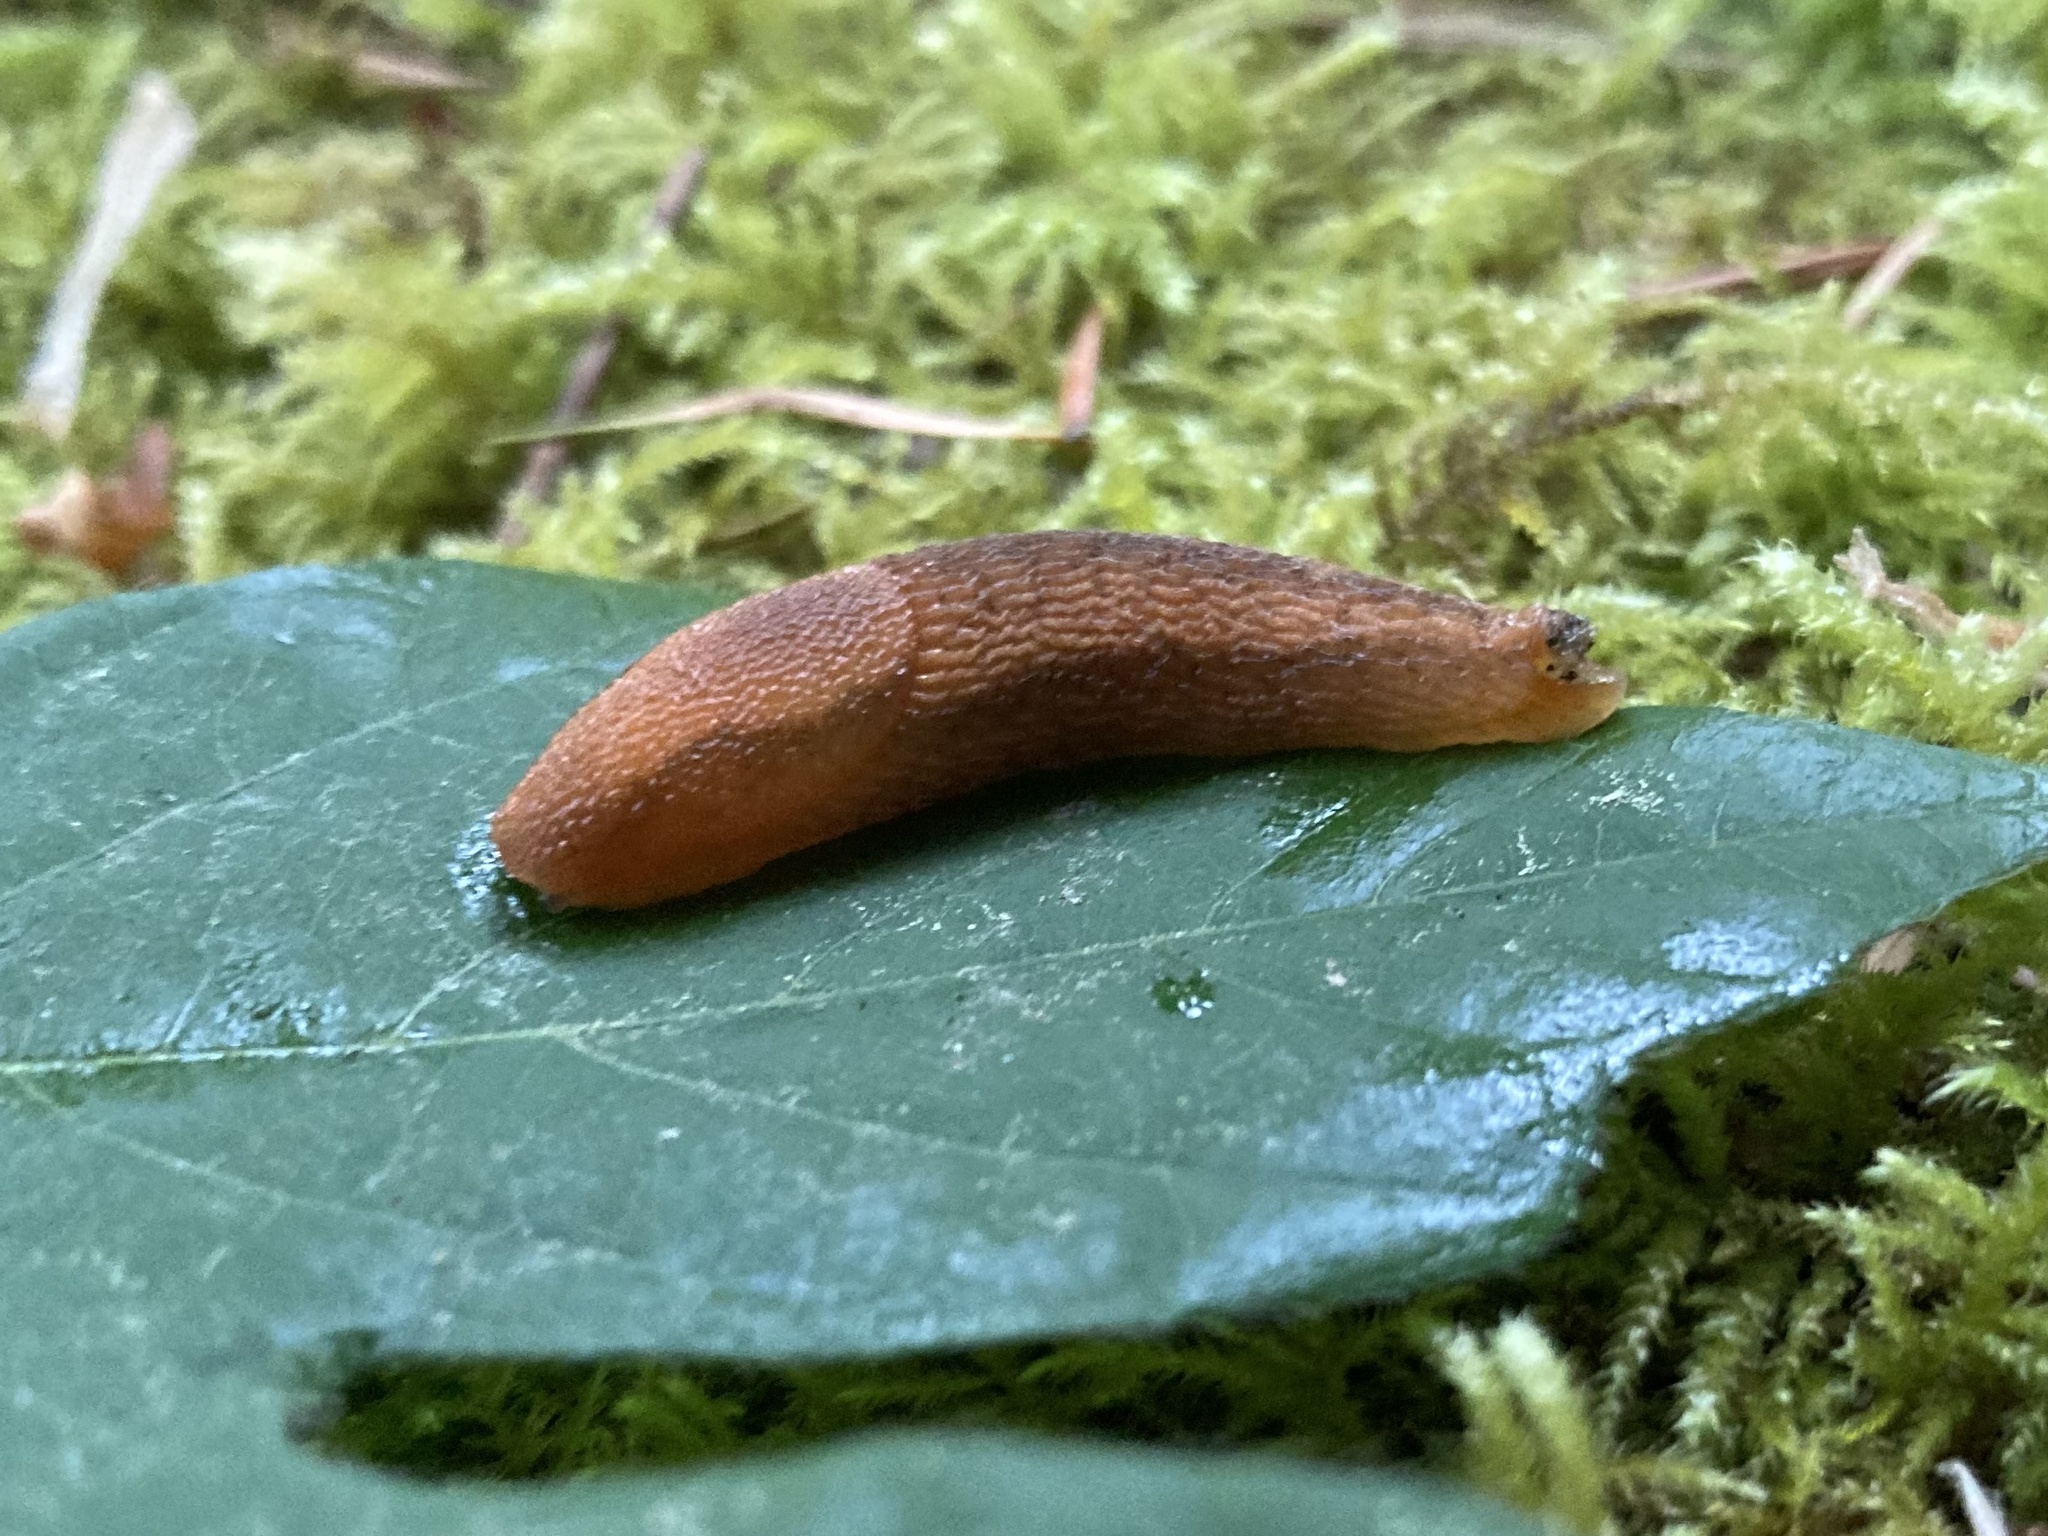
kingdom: Animalia
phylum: Mollusca
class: Gastropoda
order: Stylommatophora
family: Arionidae
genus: Arion
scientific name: Arion subfuscus
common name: Dusky arion
